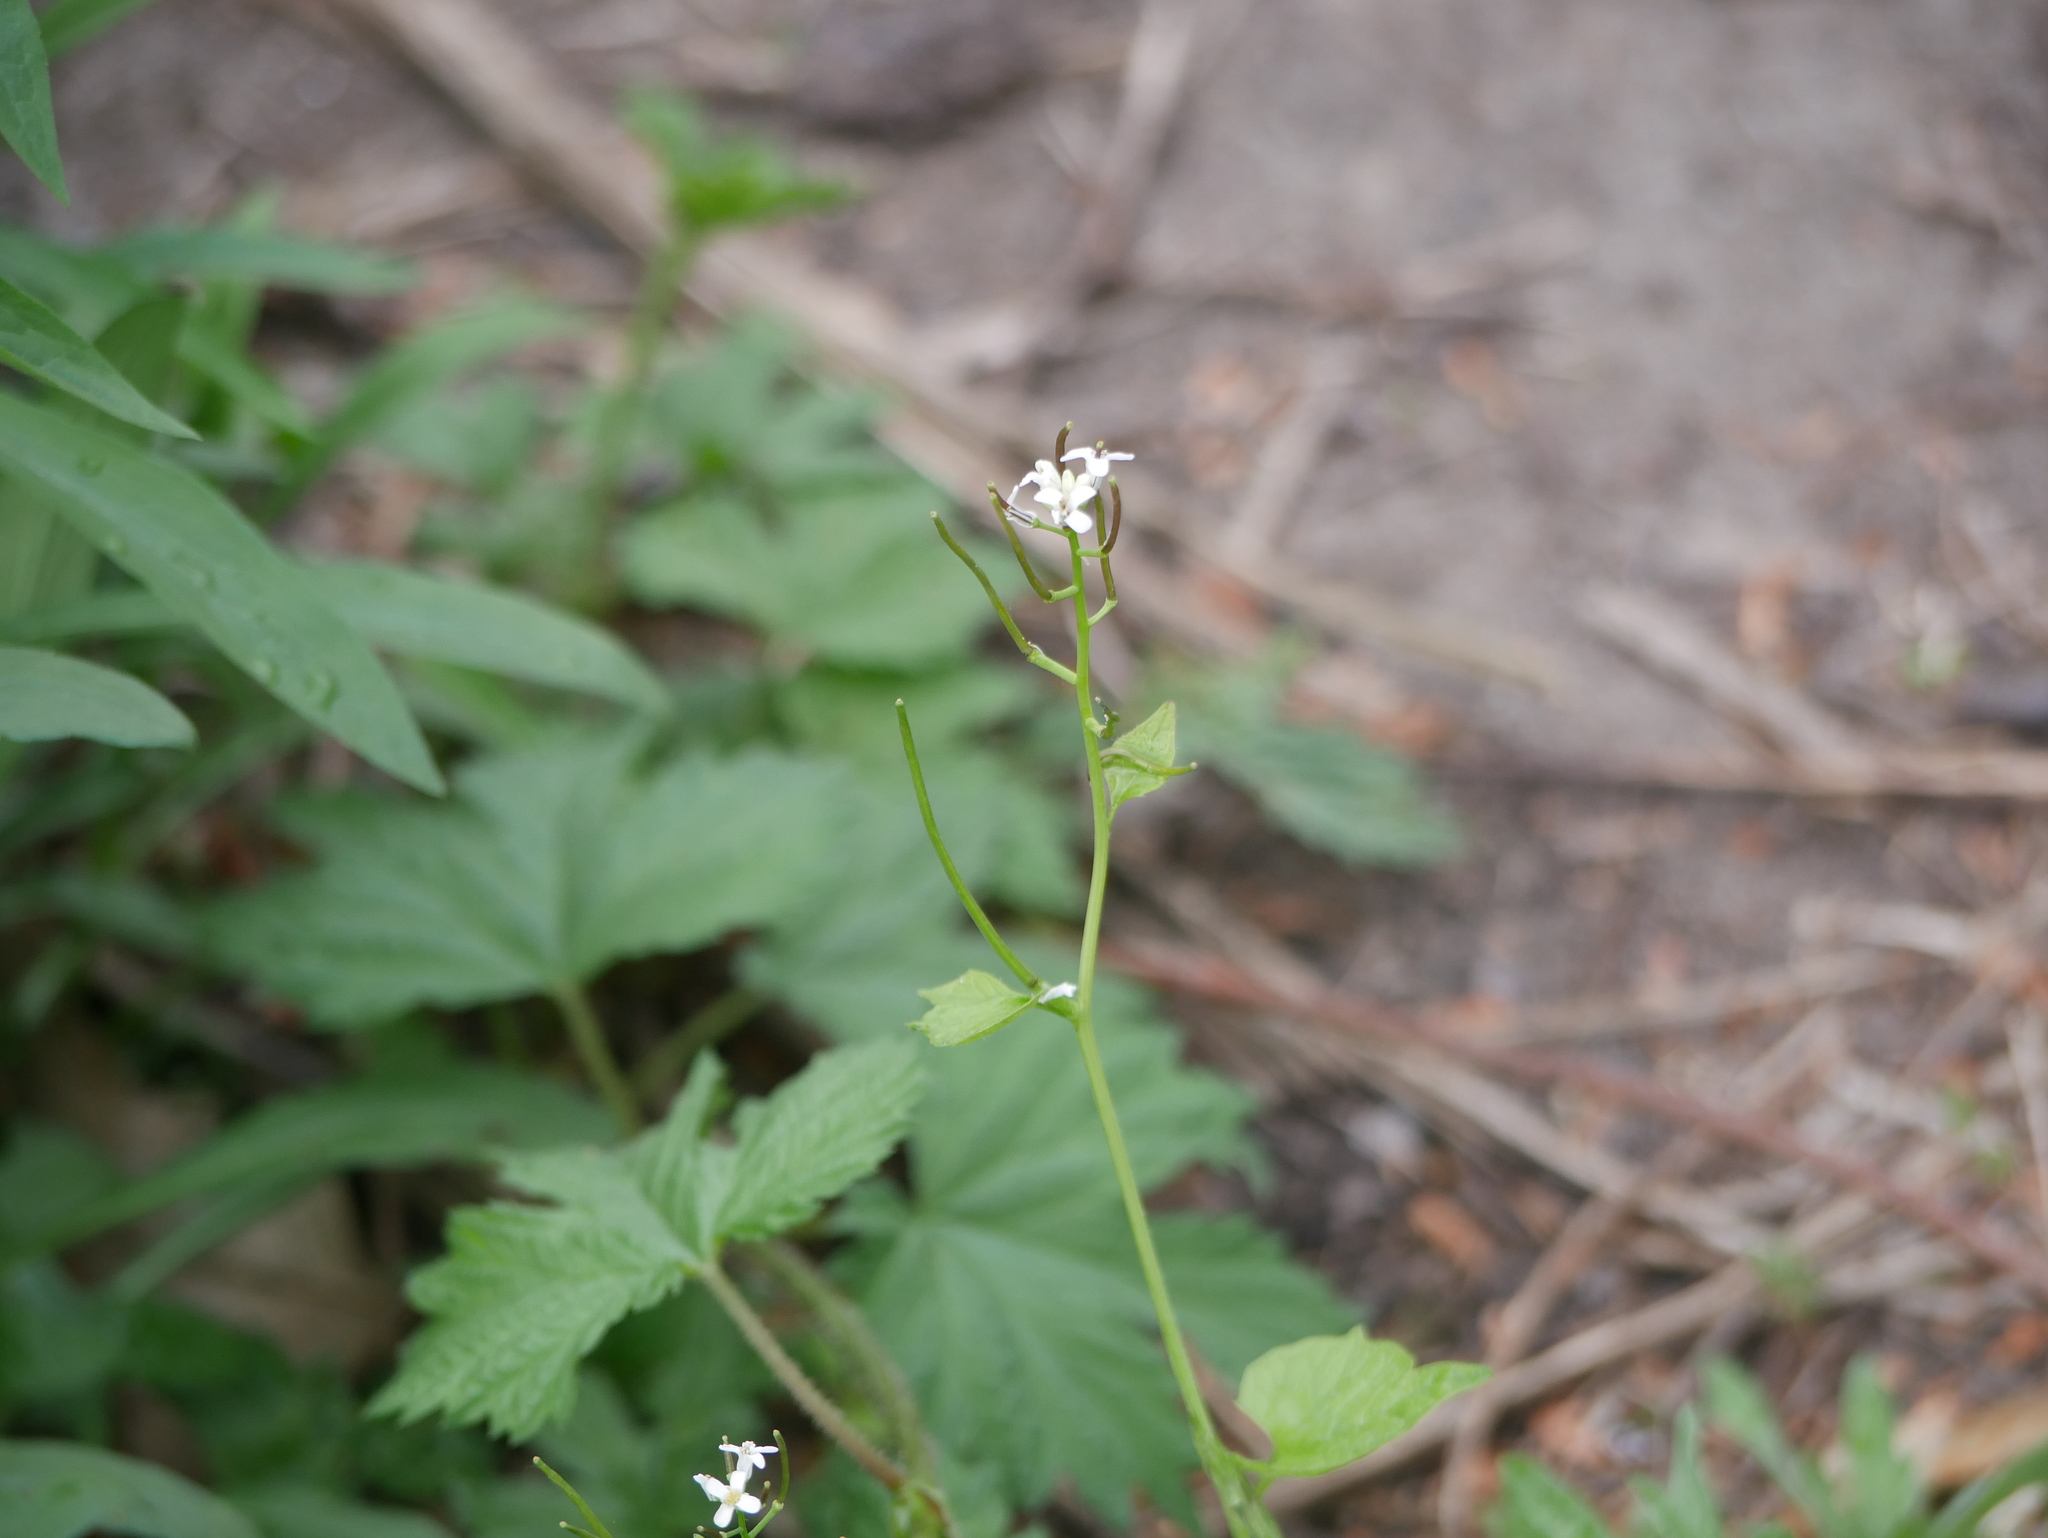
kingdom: Plantae
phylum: Tracheophyta
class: Magnoliopsida
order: Brassicales
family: Brassicaceae
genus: Alliaria
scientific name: Alliaria petiolata
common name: Garlic mustard
